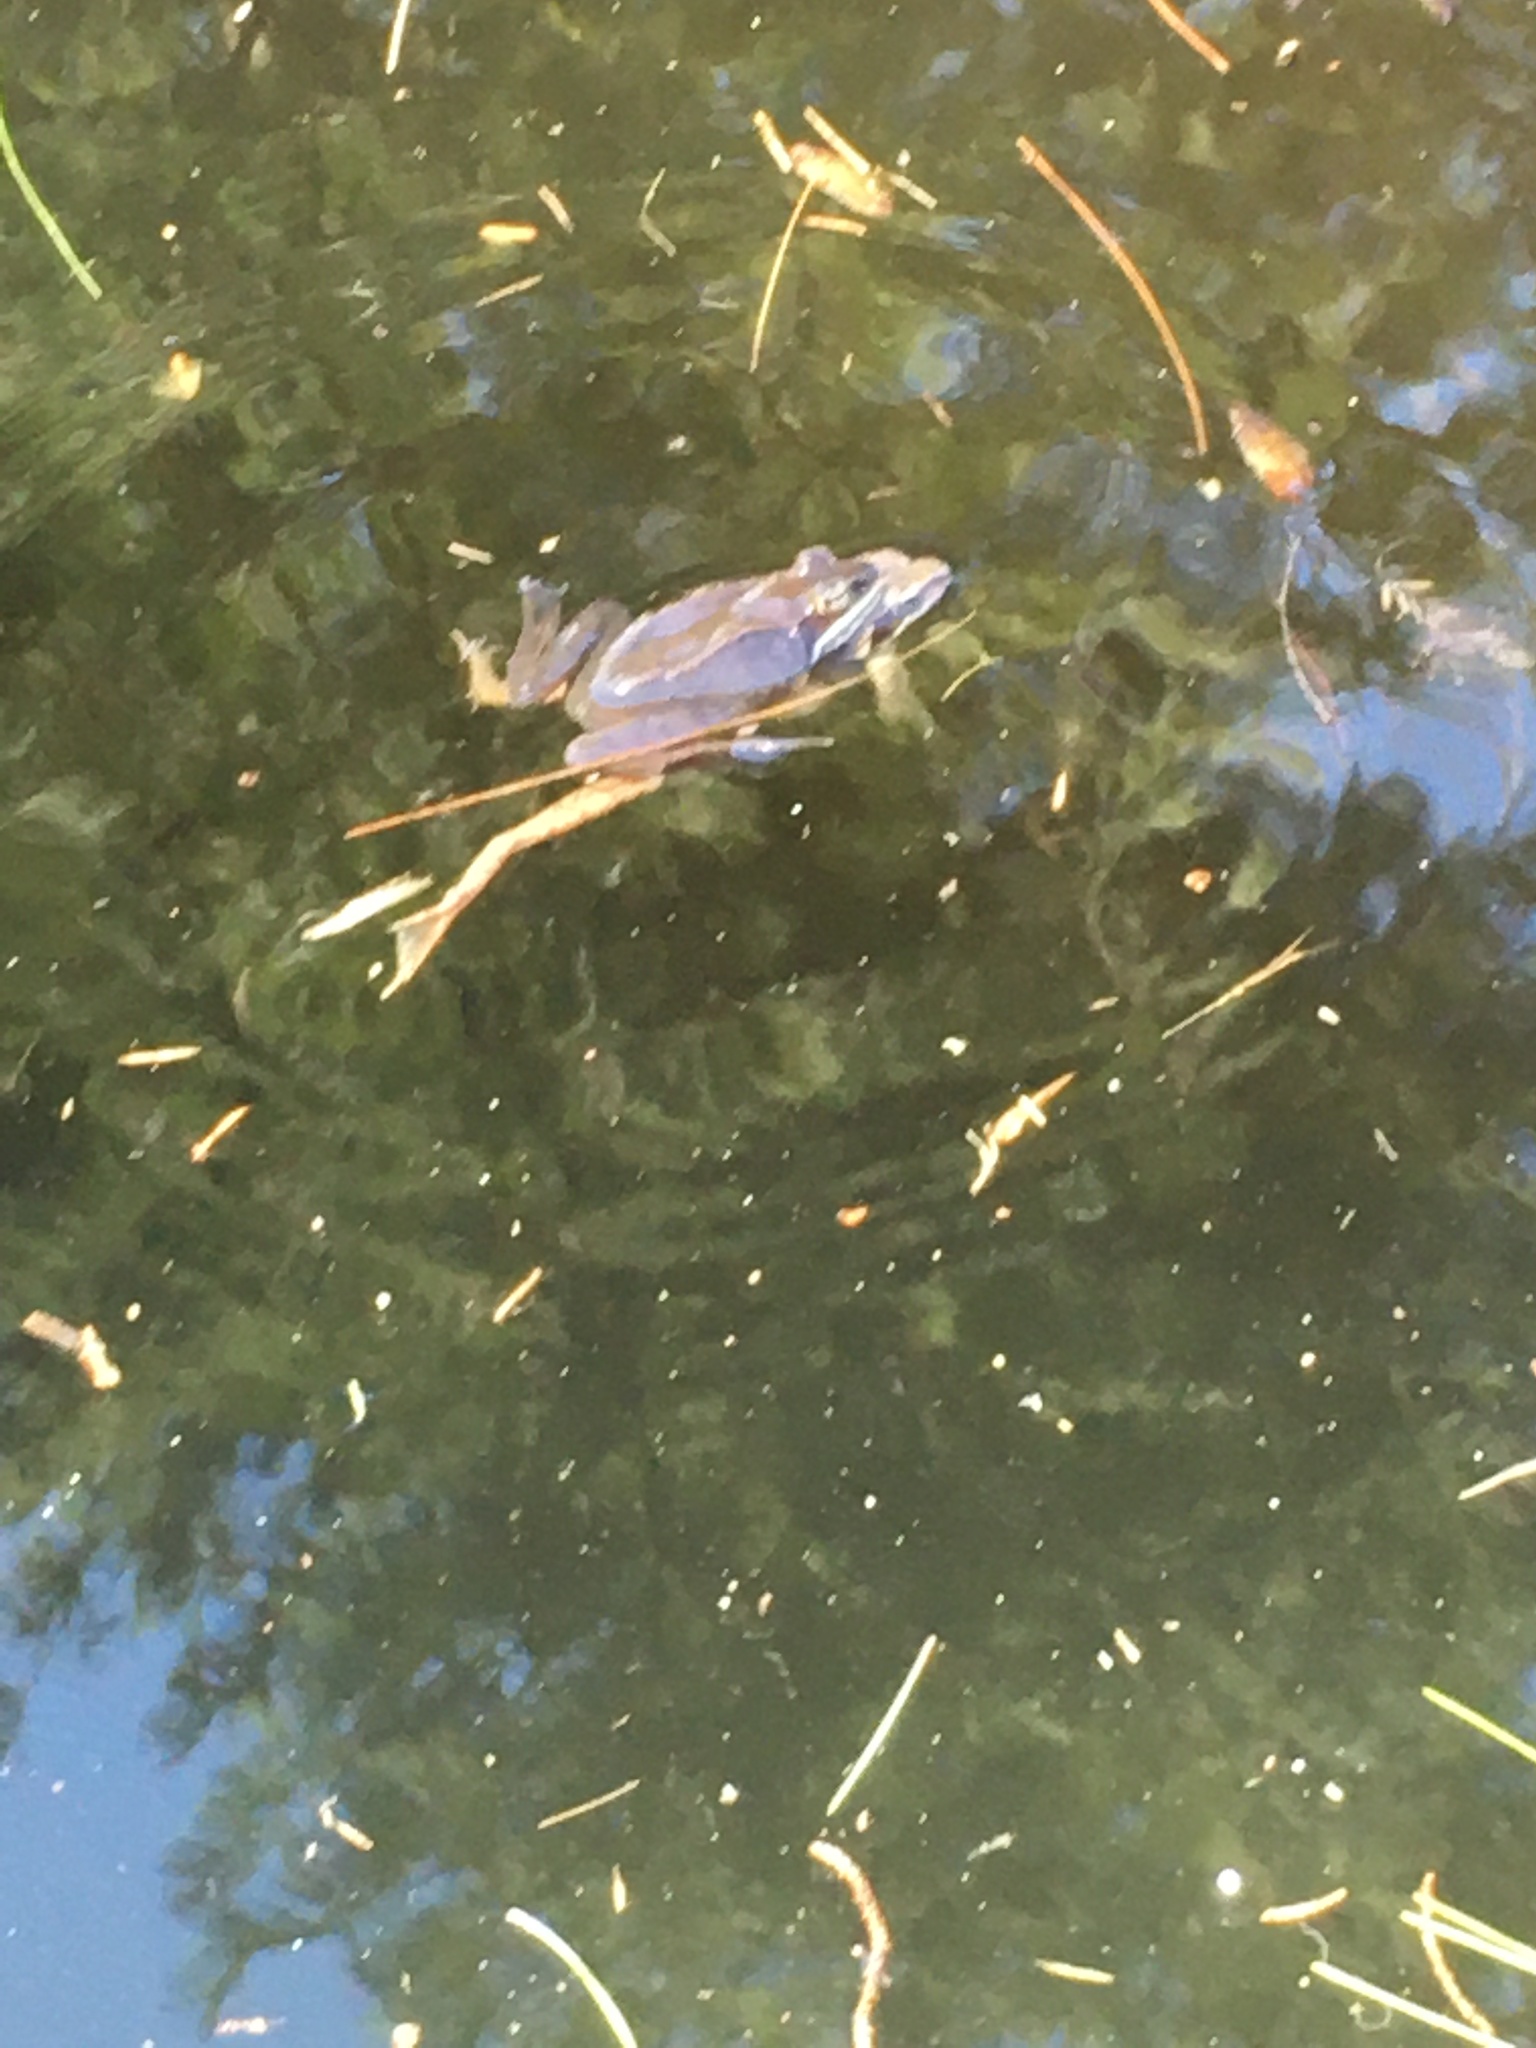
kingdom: Animalia
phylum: Chordata
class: Amphibia
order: Anura
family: Ranidae
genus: Lithobates
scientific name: Lithobates sylvaticus
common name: Wood frog
